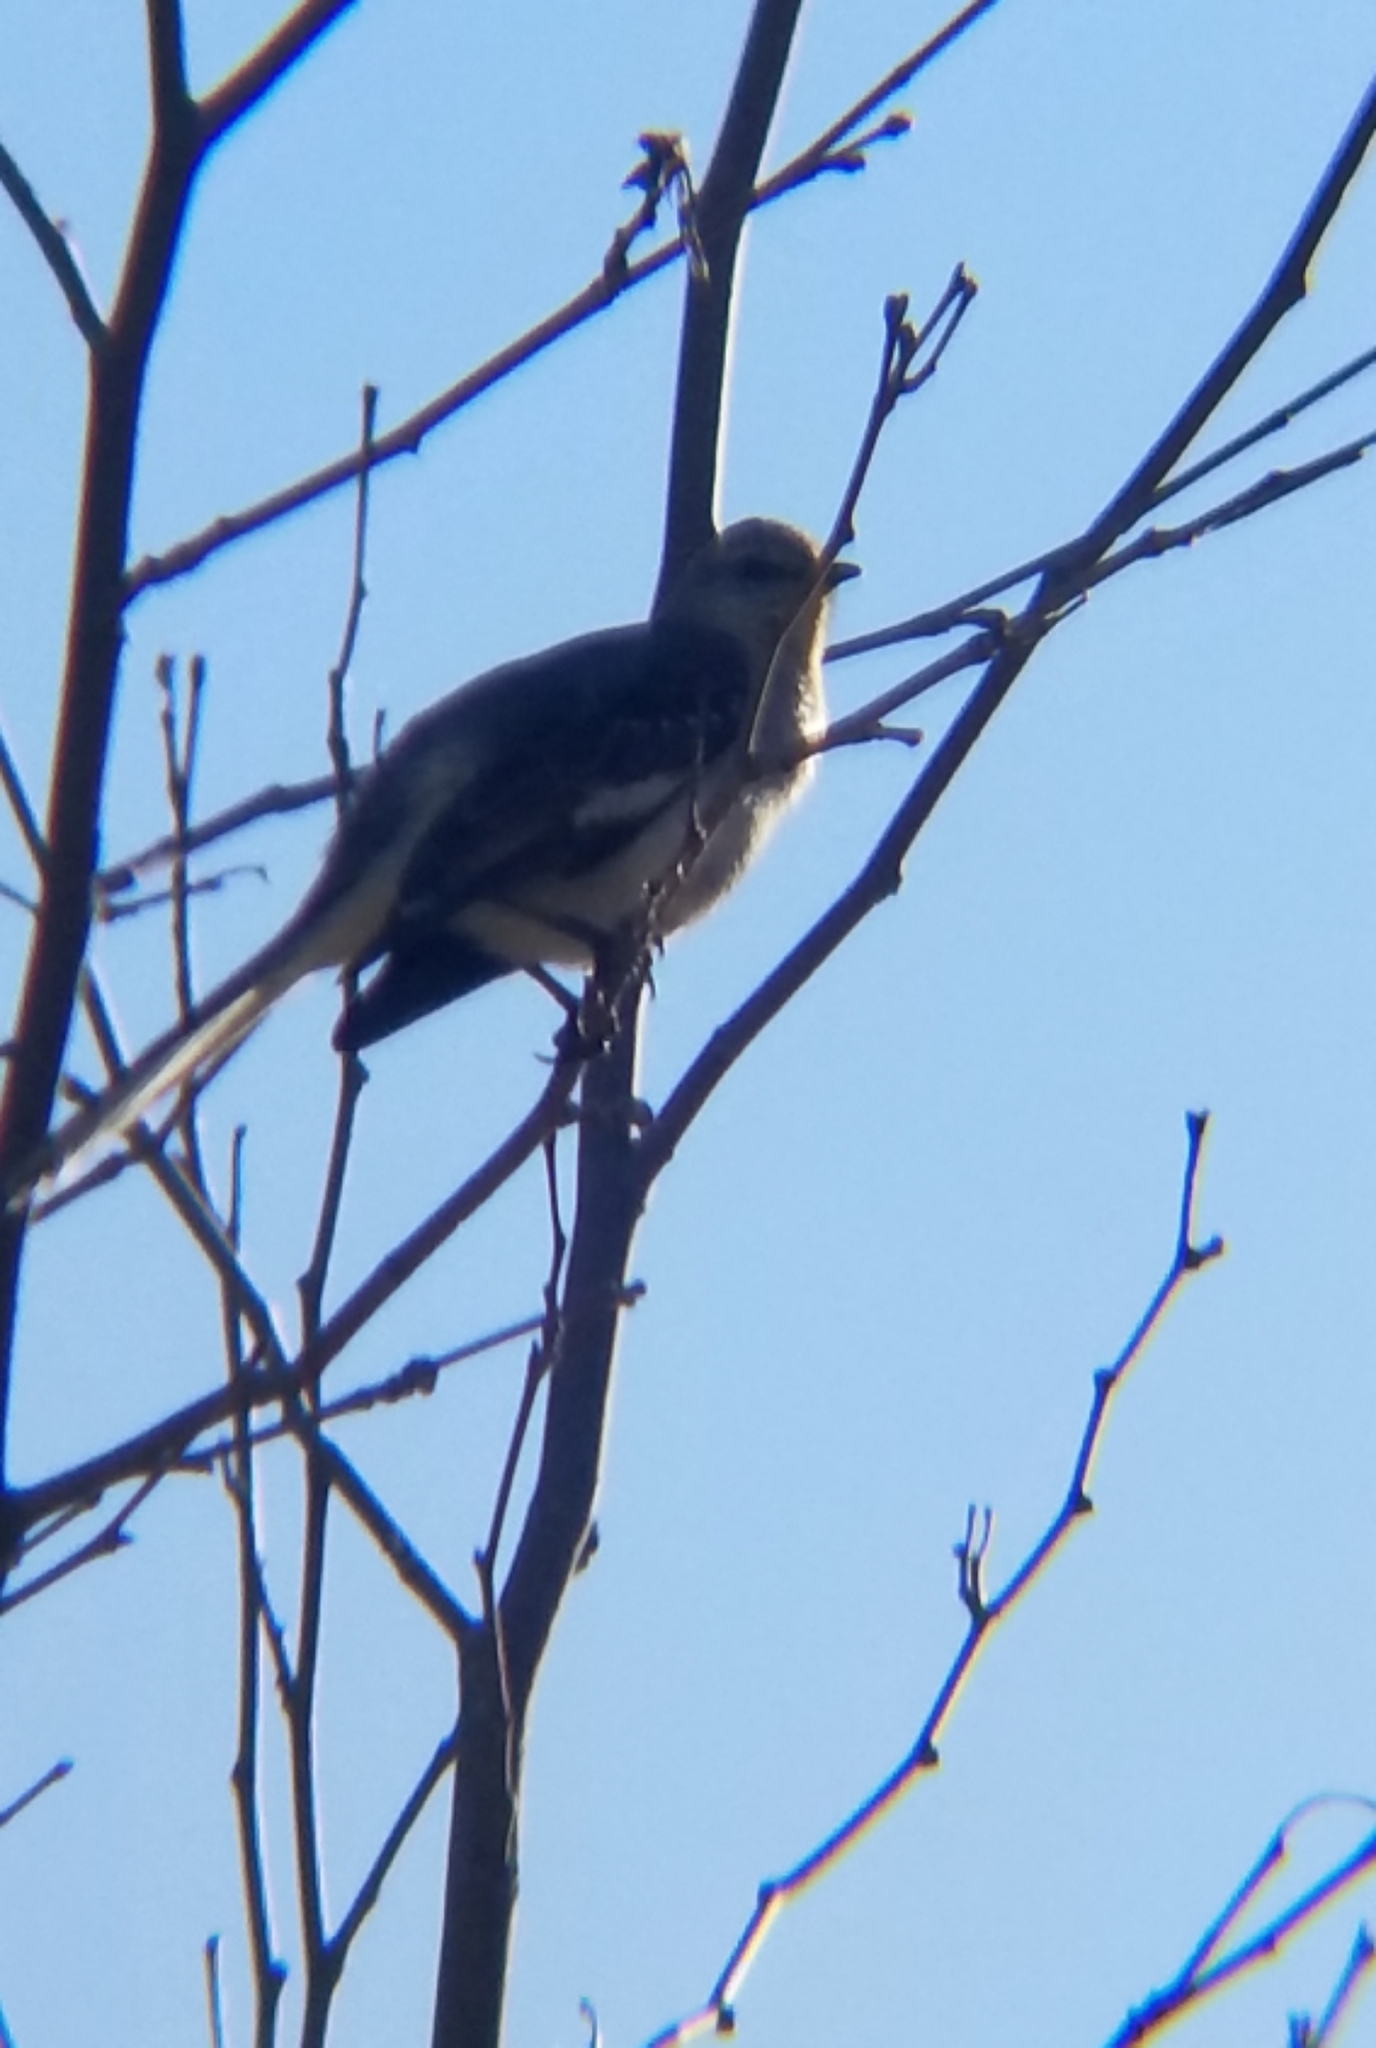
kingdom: Animalia
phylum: Chordata
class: Aves
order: Passeriformes
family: Mimidae
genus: Mimus
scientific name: Mimus polyglottos
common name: Northern mockingbird
